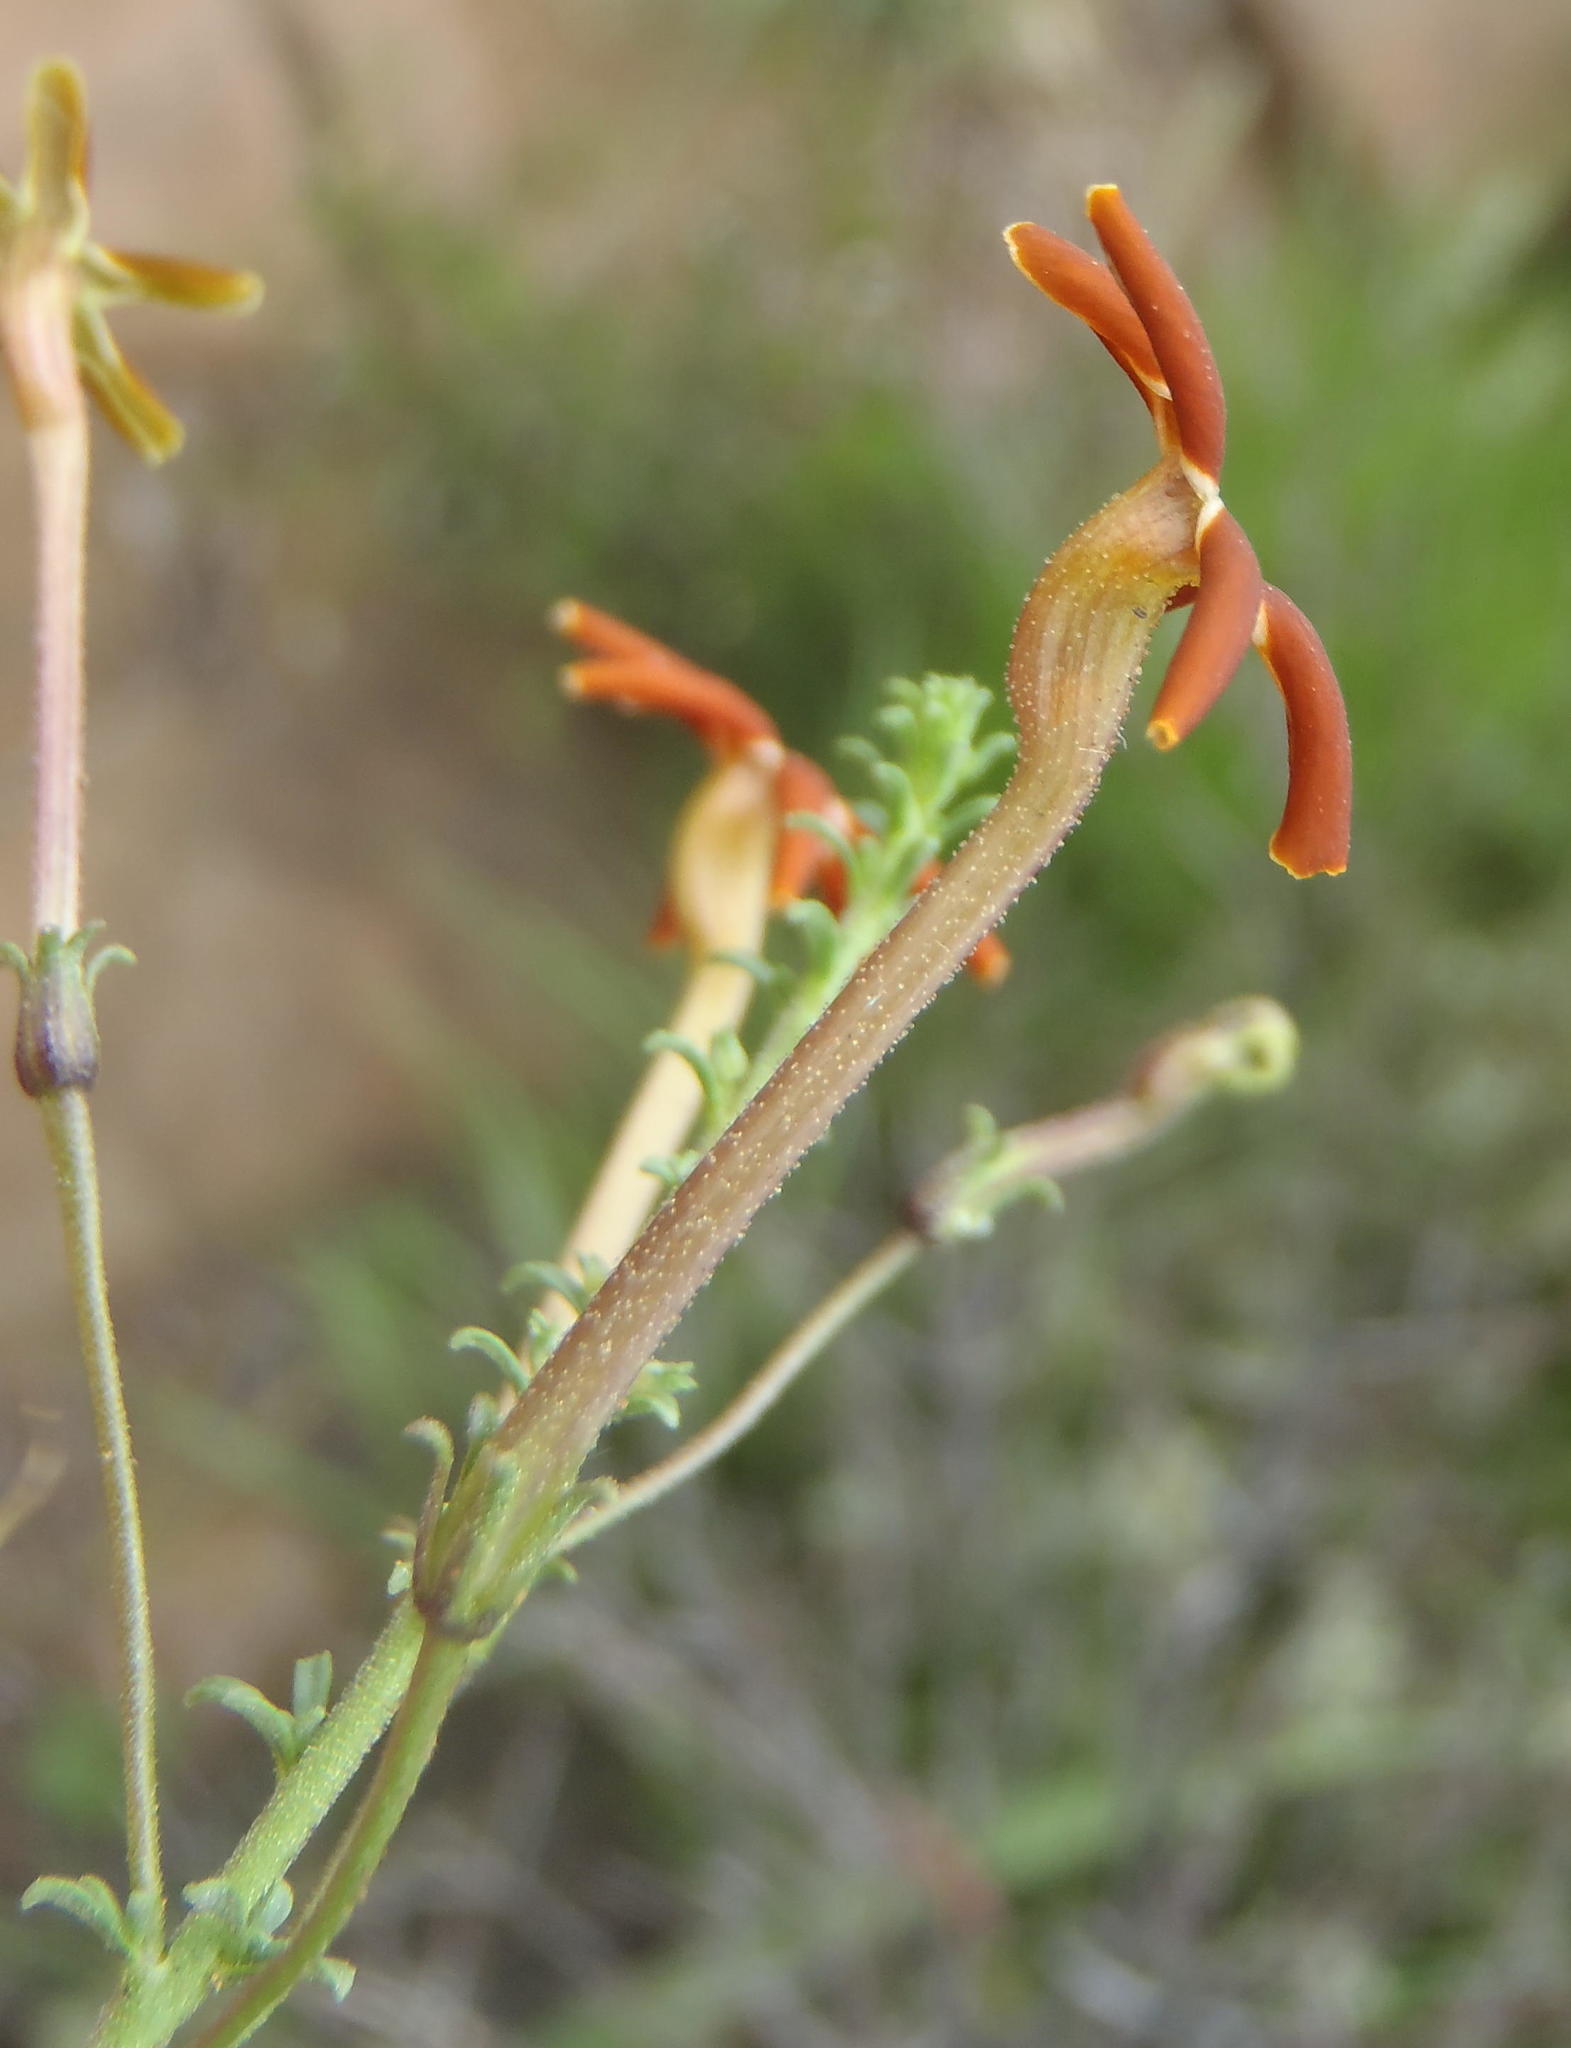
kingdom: Plantae
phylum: Tracheophyta
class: Magnoliopsida
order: Lamiales
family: Scrophulariaceae
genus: Jamesbrittenia
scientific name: Jamesbrittenia atropurpurea
